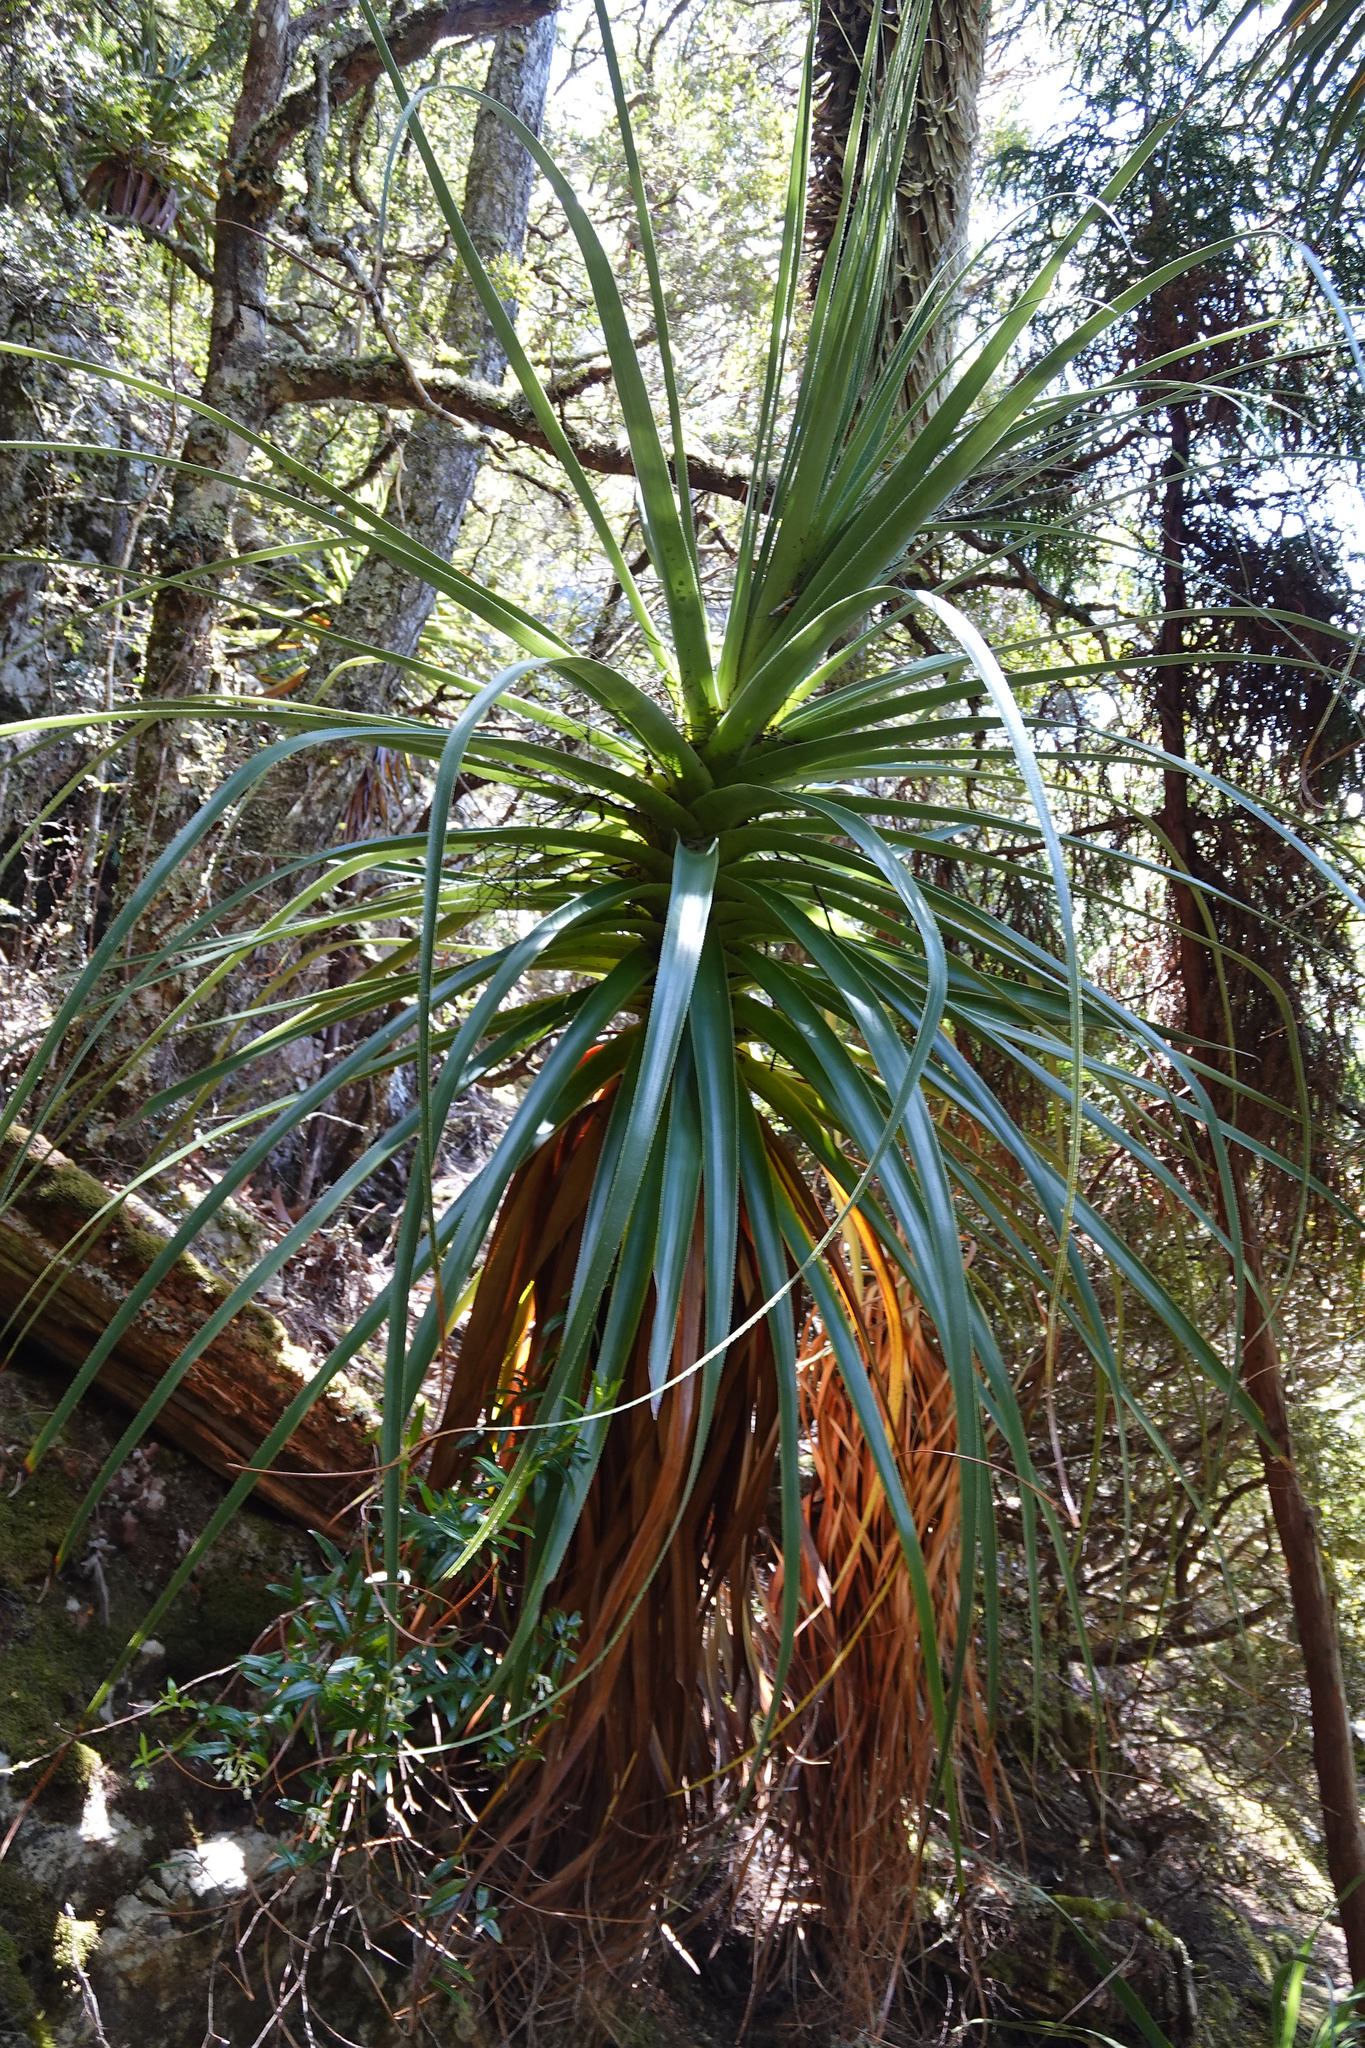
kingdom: Plantae
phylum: Tracheophyta
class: Magnoliopsida
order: Ericales
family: Ericaceae
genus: Dracophyllum
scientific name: Dracophyllum pandanifolium
